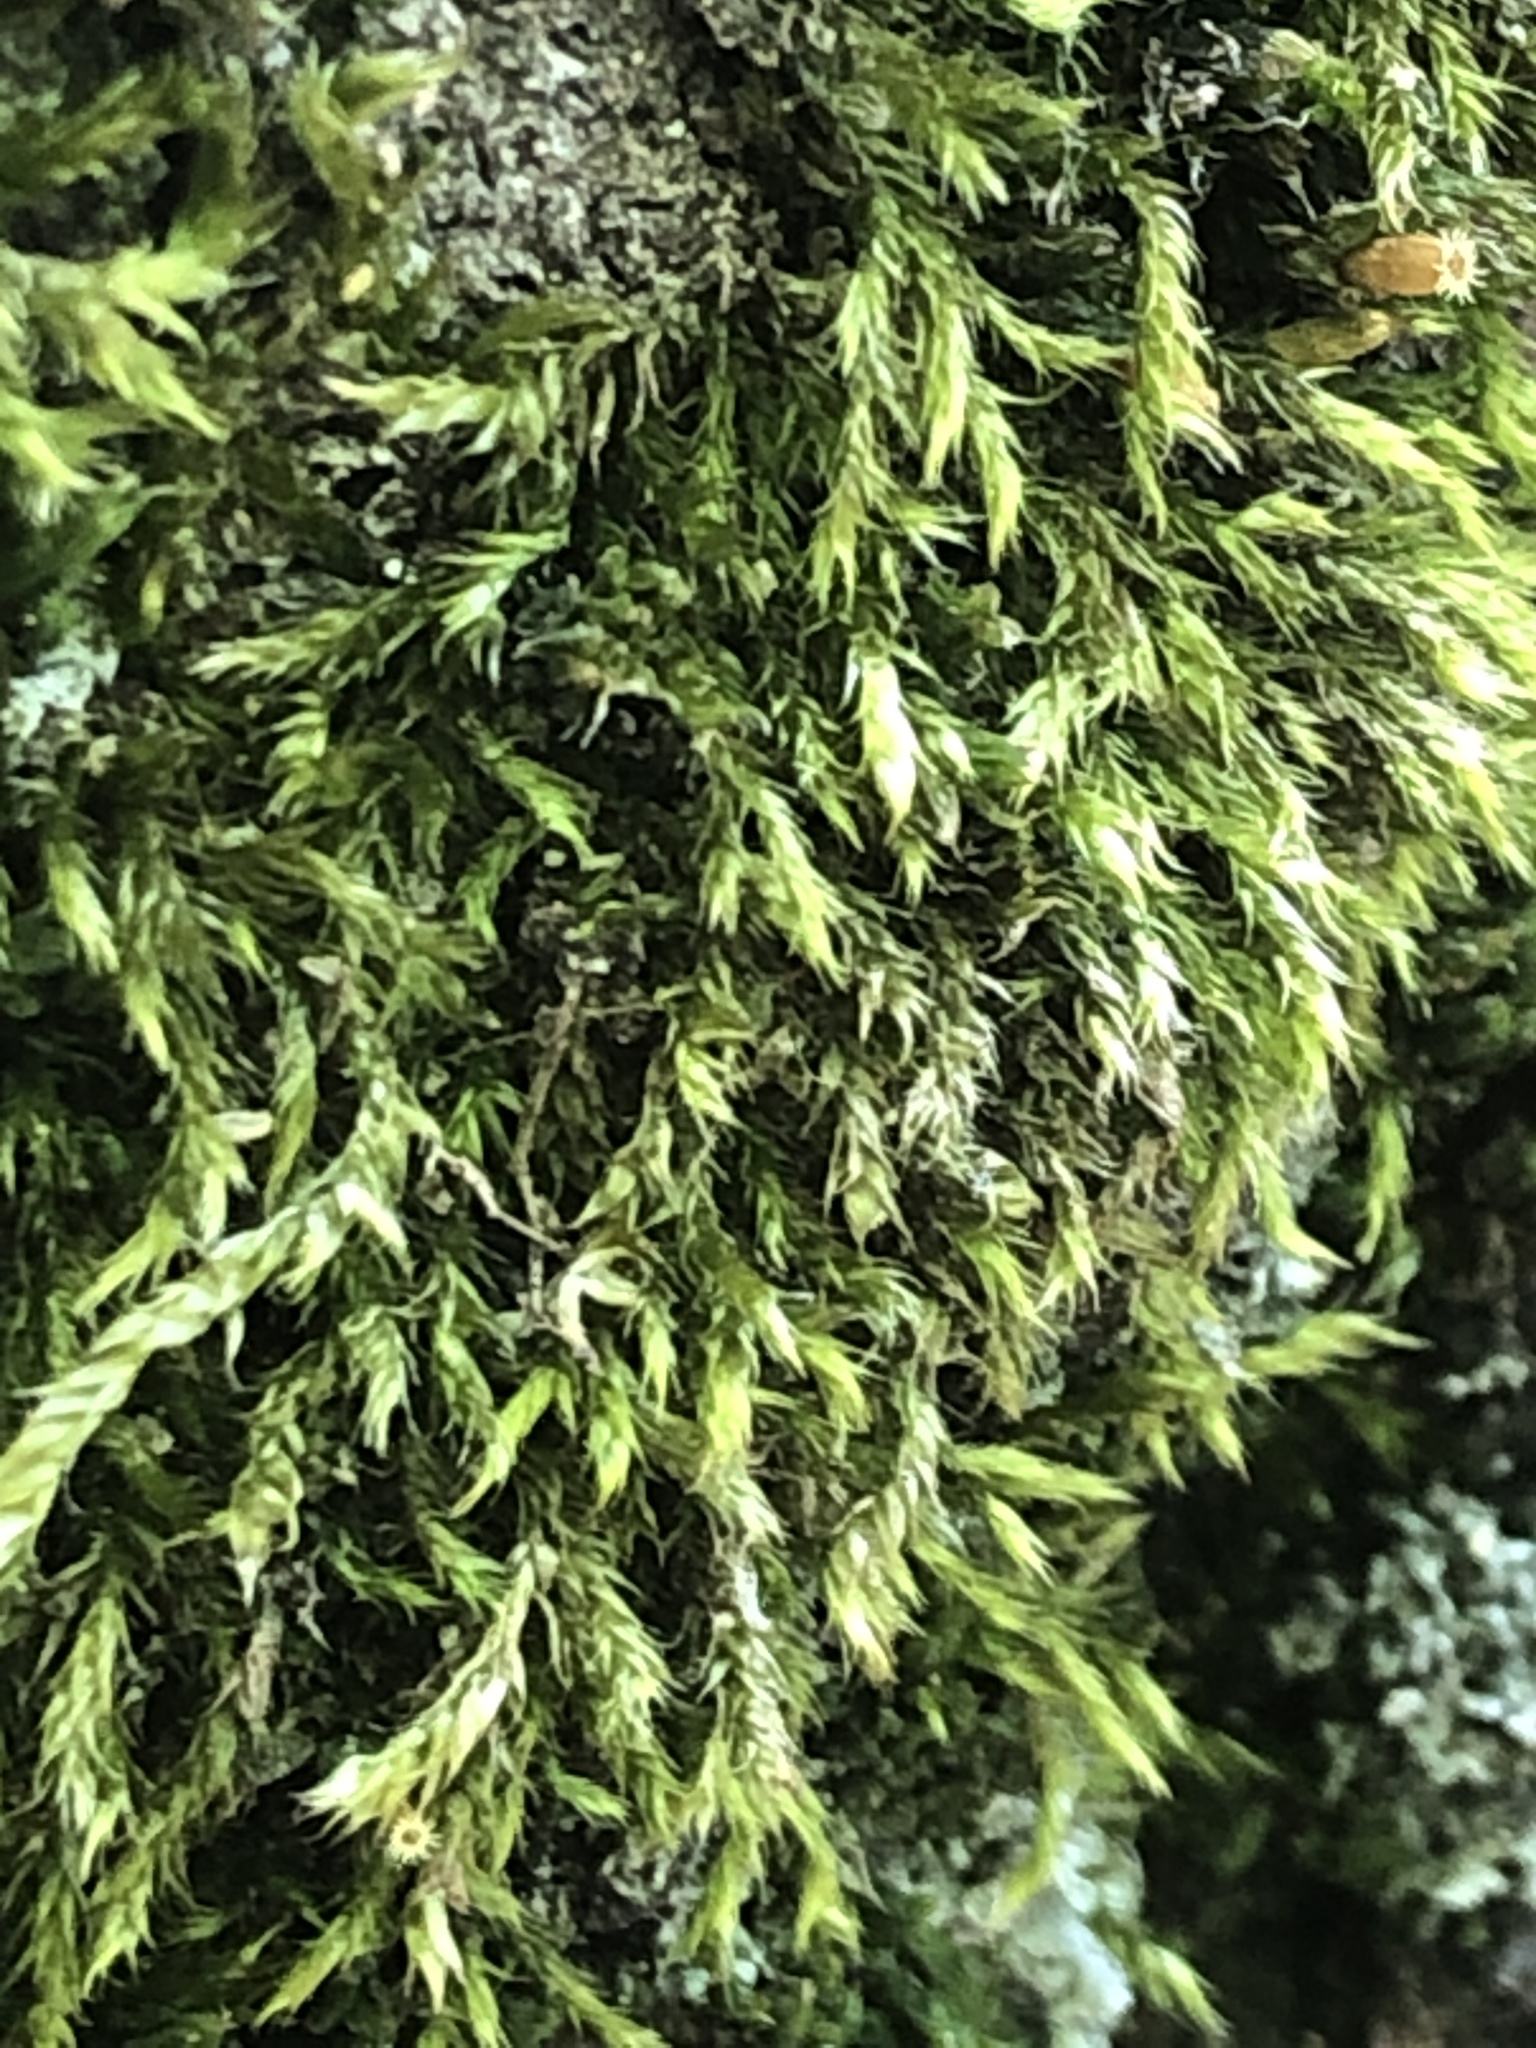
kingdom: Plantae
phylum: Bryophyta
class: Bryopsida
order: Hypnales
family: Hypnaceae
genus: Hypnum
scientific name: Hypnum cupressiforme
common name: Cypress-leaved plait-moss
